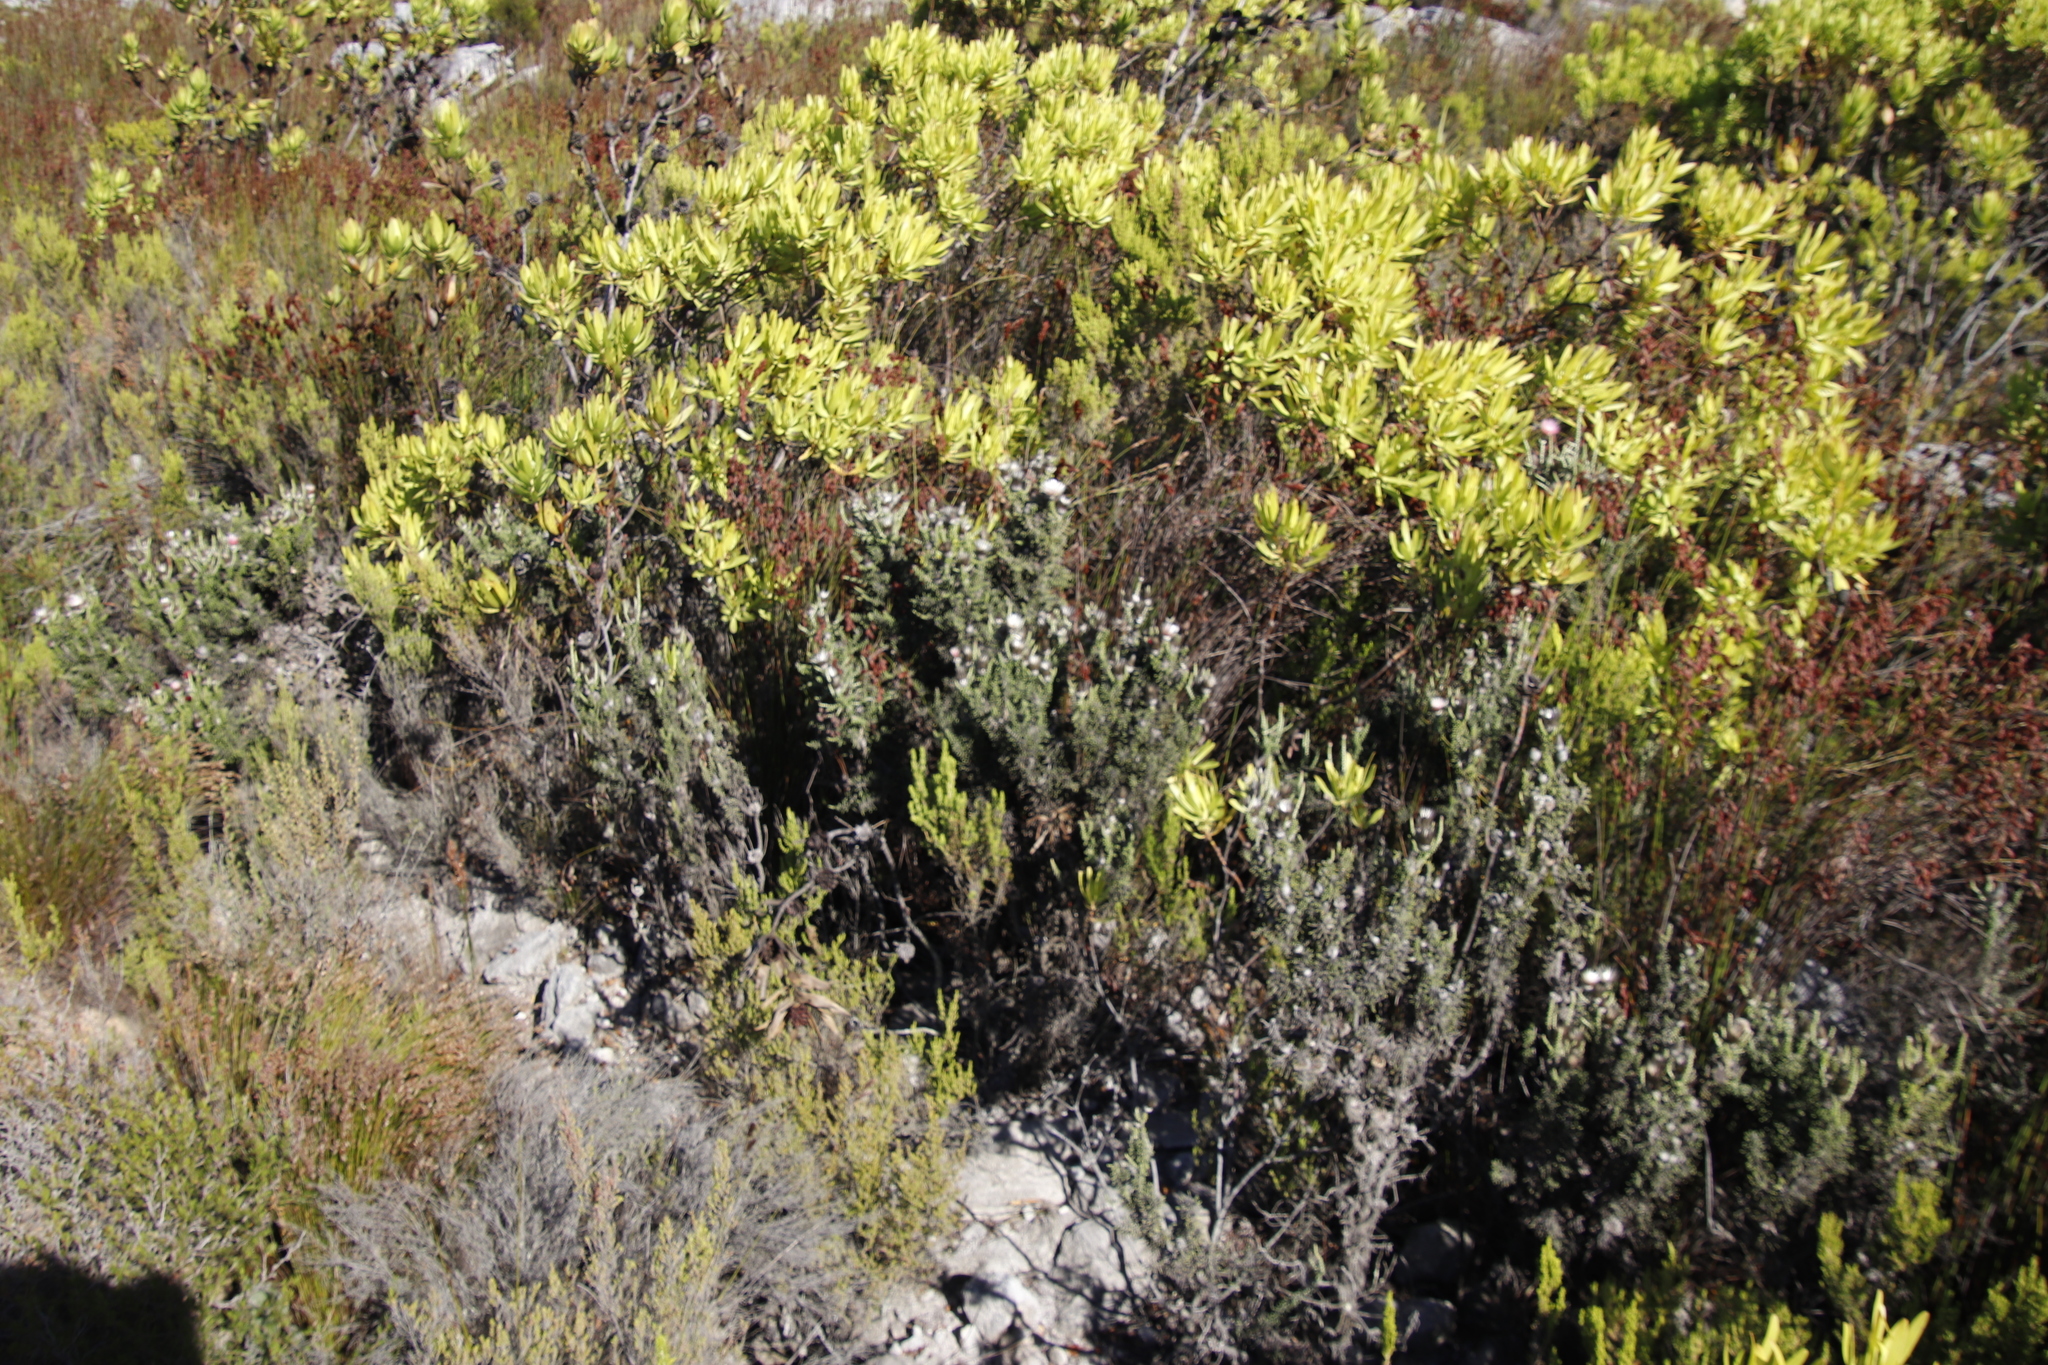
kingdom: Plantae
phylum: Tracheophyta
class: Magnoliopsida
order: Asterales
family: Asteraceae
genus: Phaenocoma
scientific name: Phaenocoma prolifera
